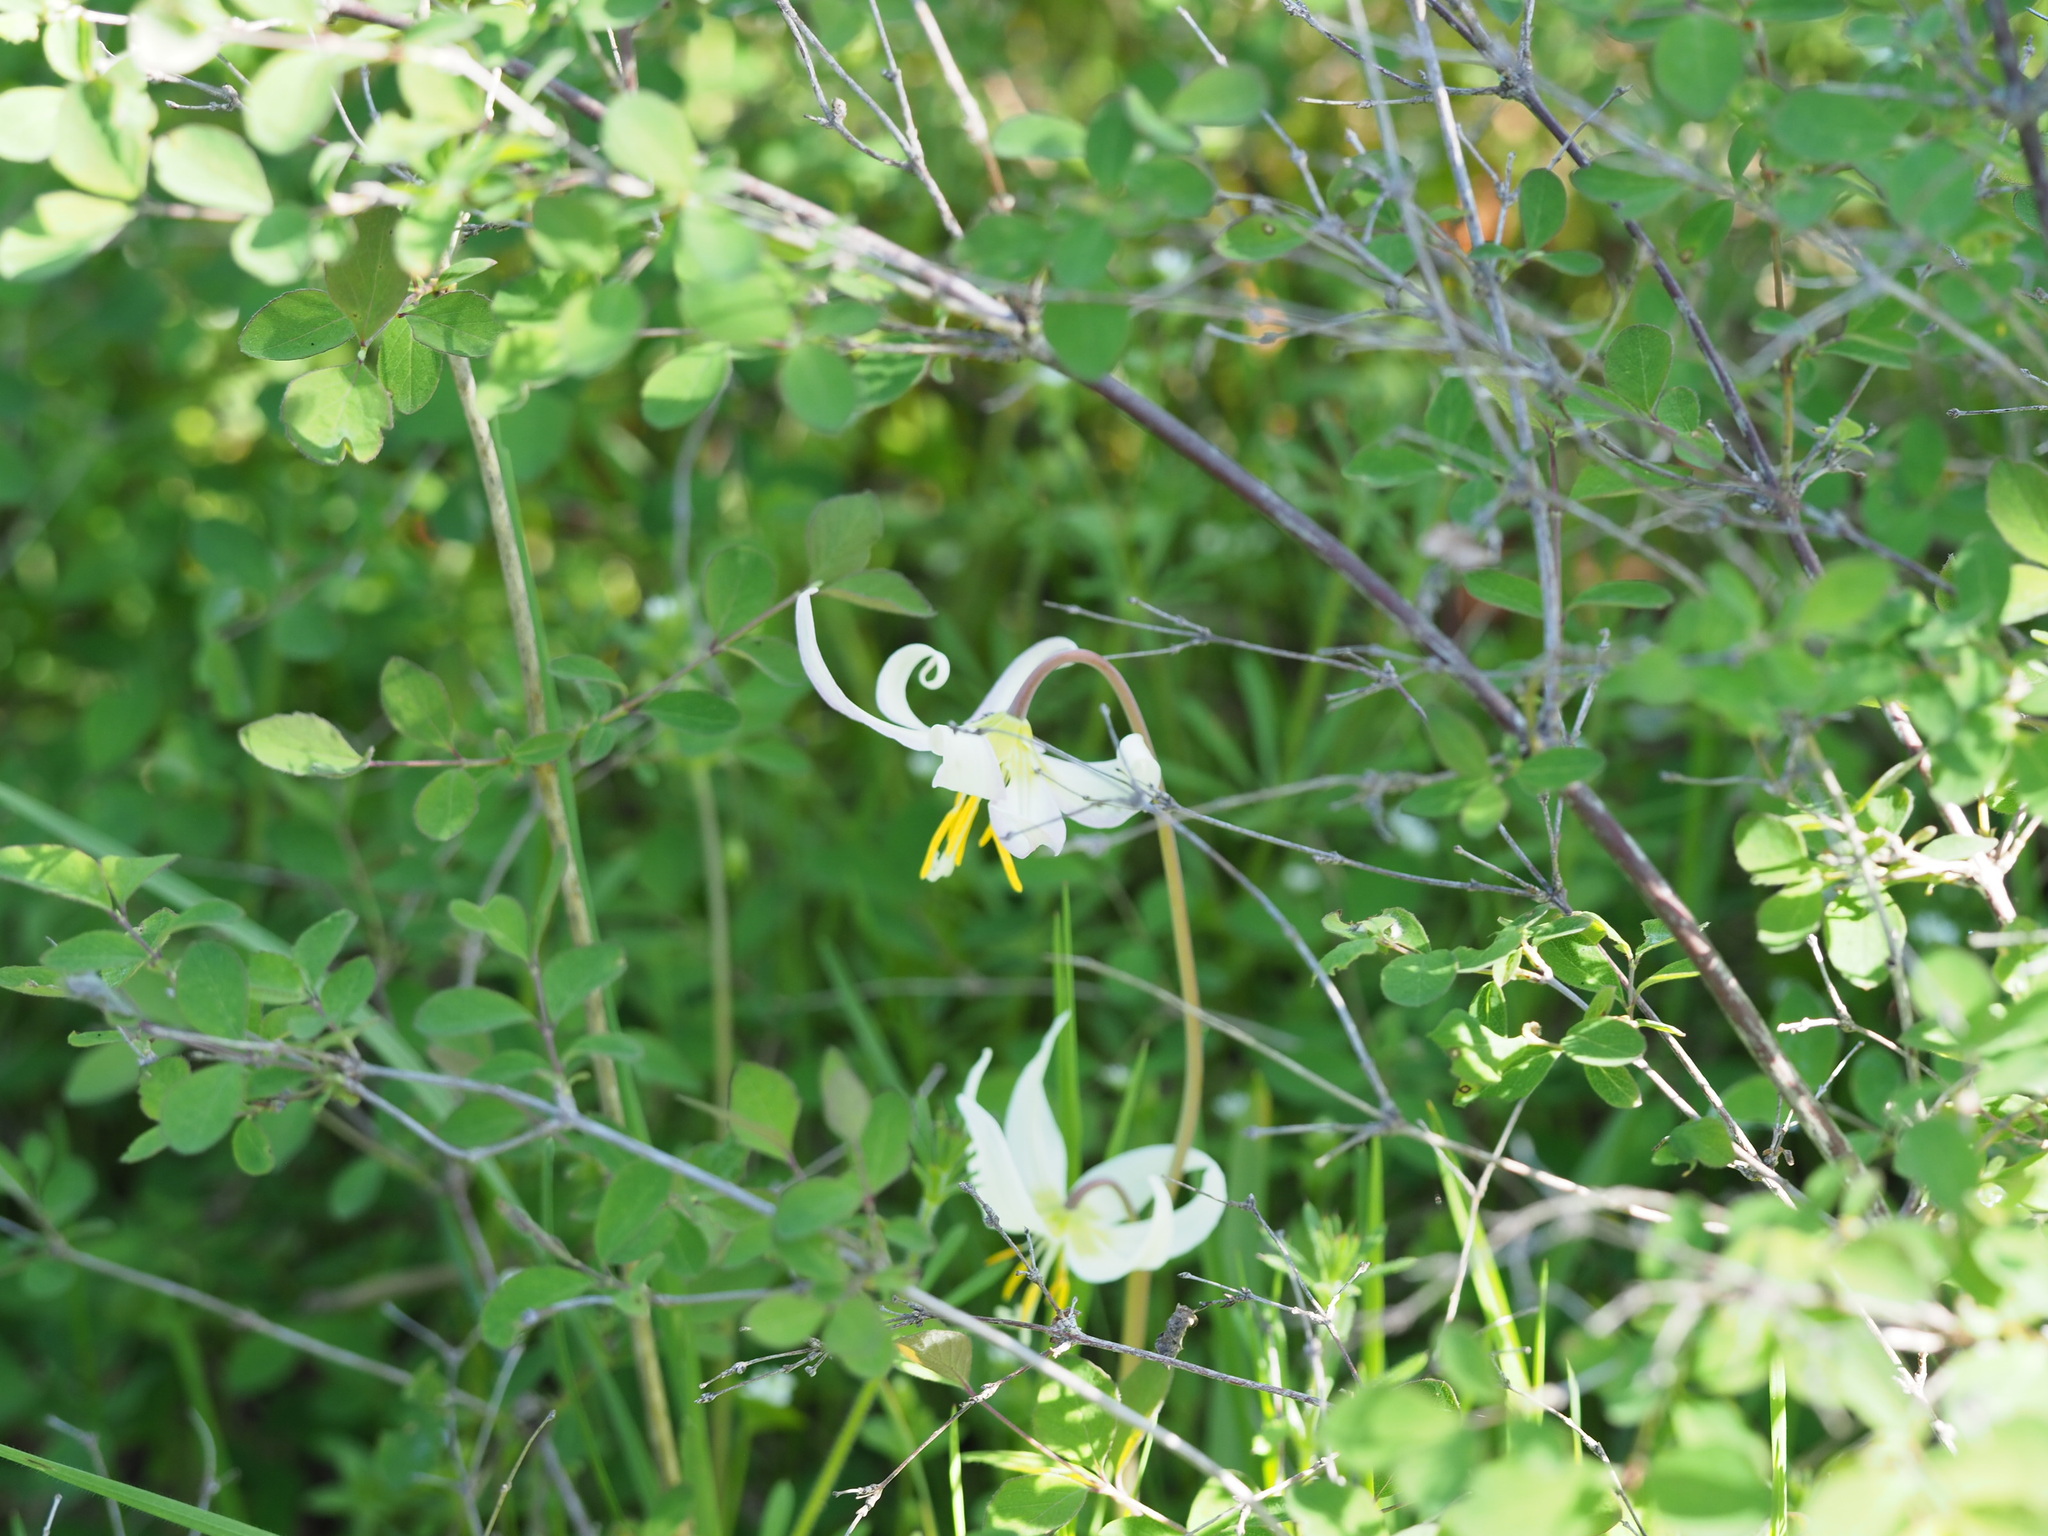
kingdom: Plantae
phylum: Tracheophyta
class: Liliopsida
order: Liliales
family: Liliaceae
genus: Erythronium
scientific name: Erythronium oregonum
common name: Giant adder's-tongue
